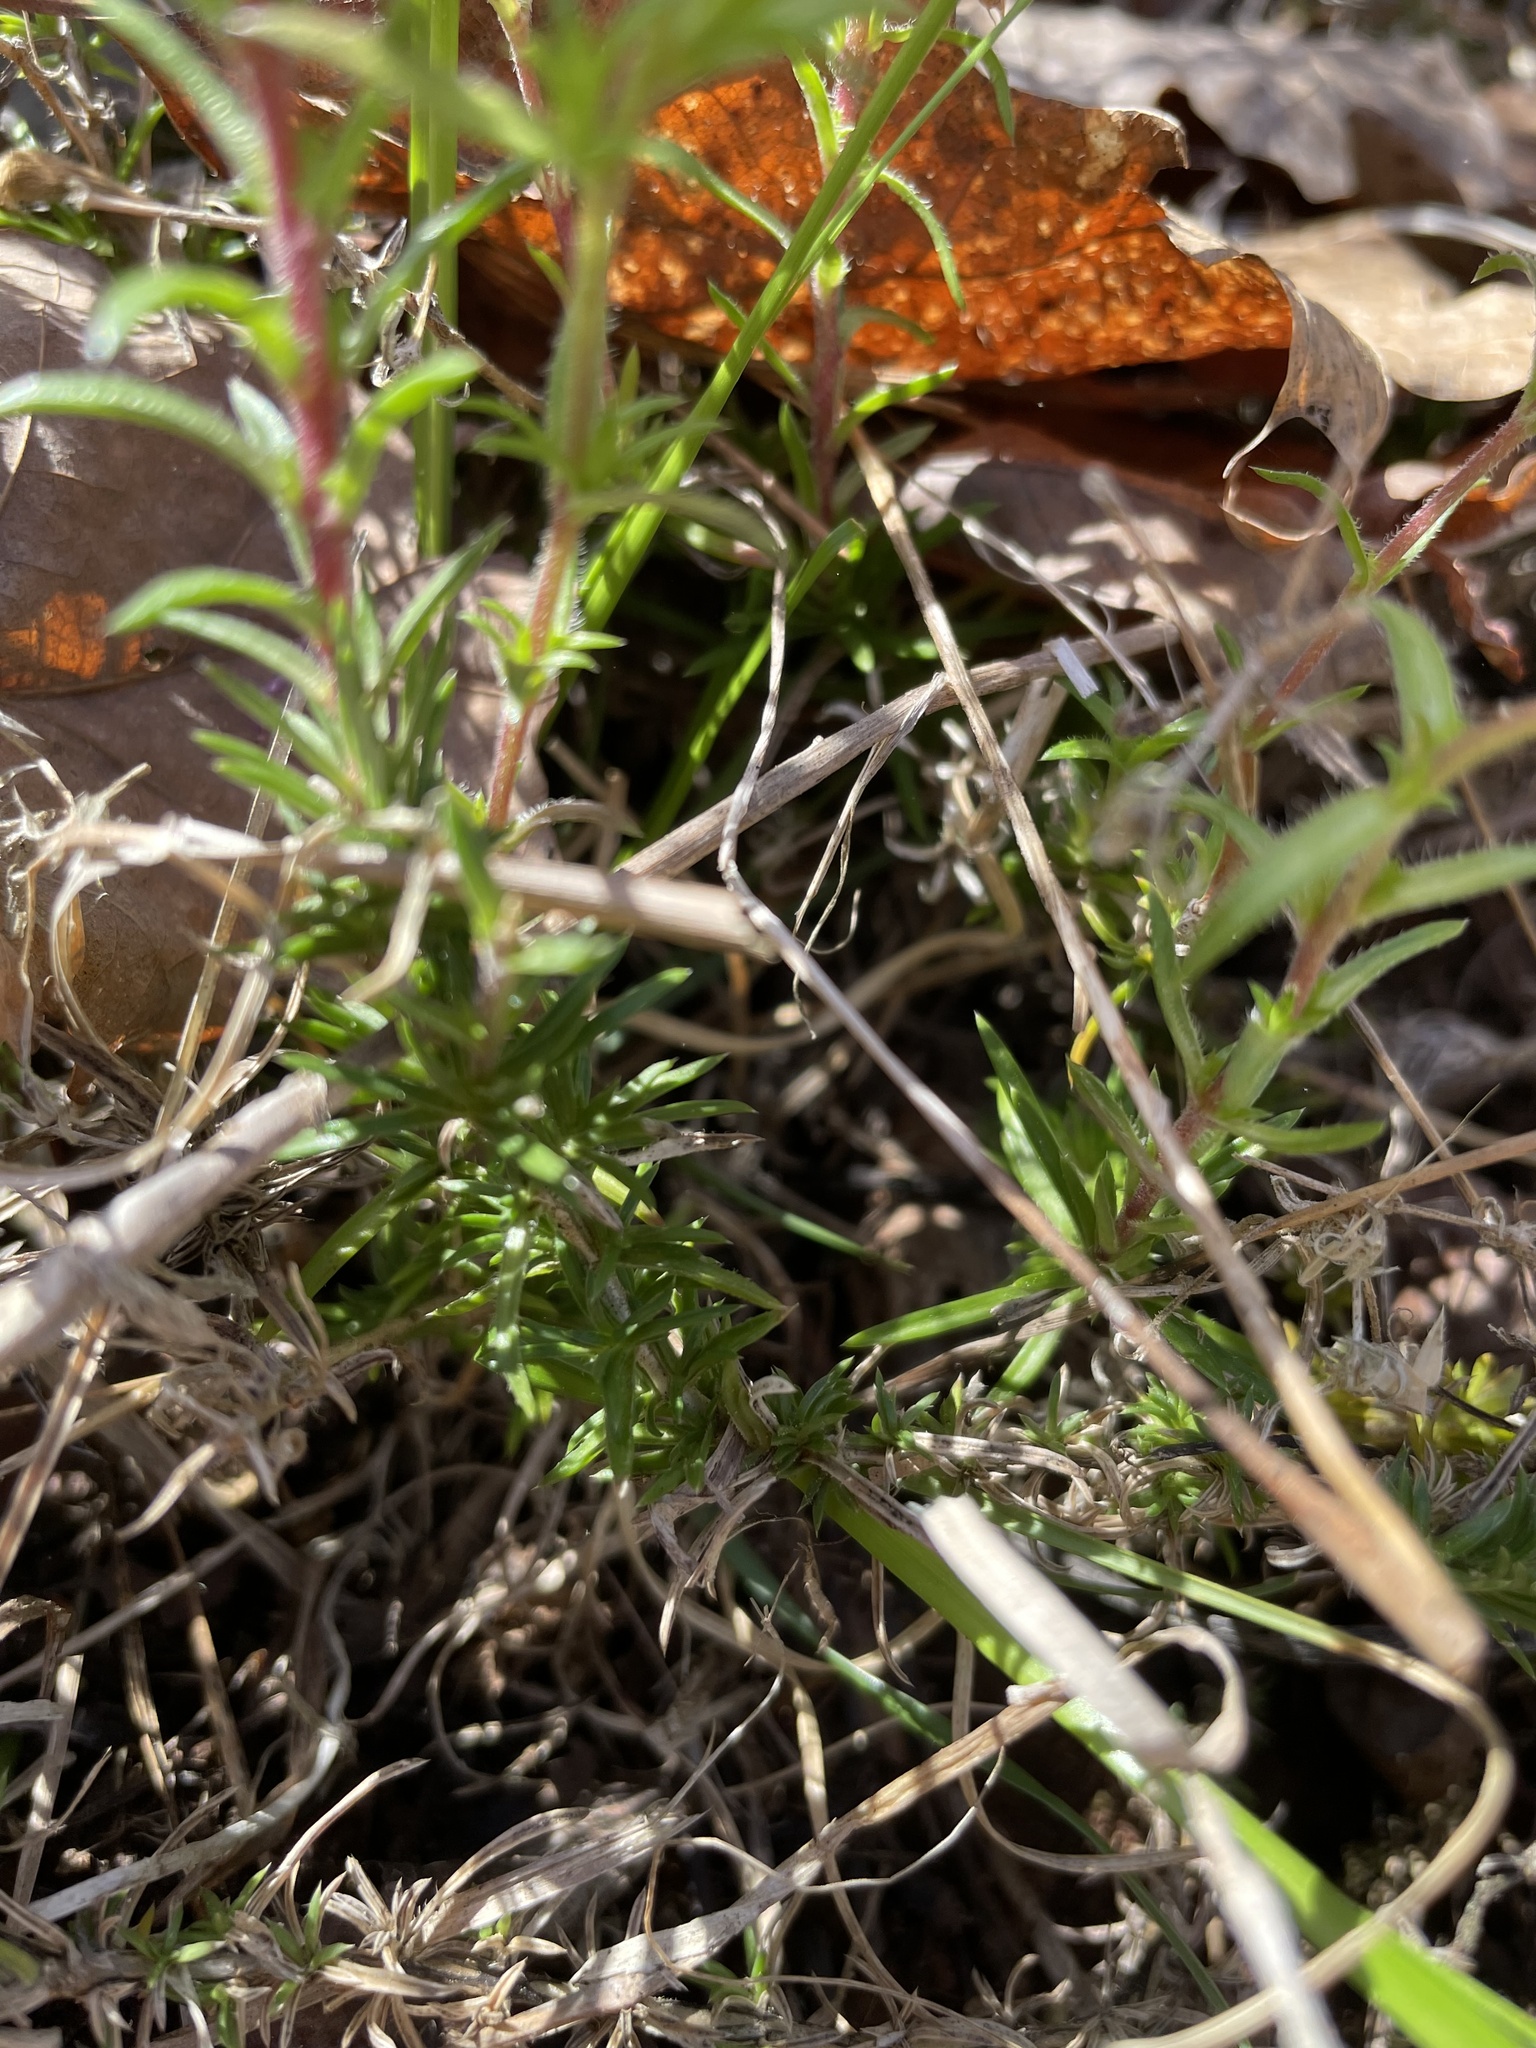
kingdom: Plantae
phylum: Tracheophyta
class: Magnoliopsida
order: Ericales
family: Polemoniaceae
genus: Phlox
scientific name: Phlox nivalis
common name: Trailing phlox
